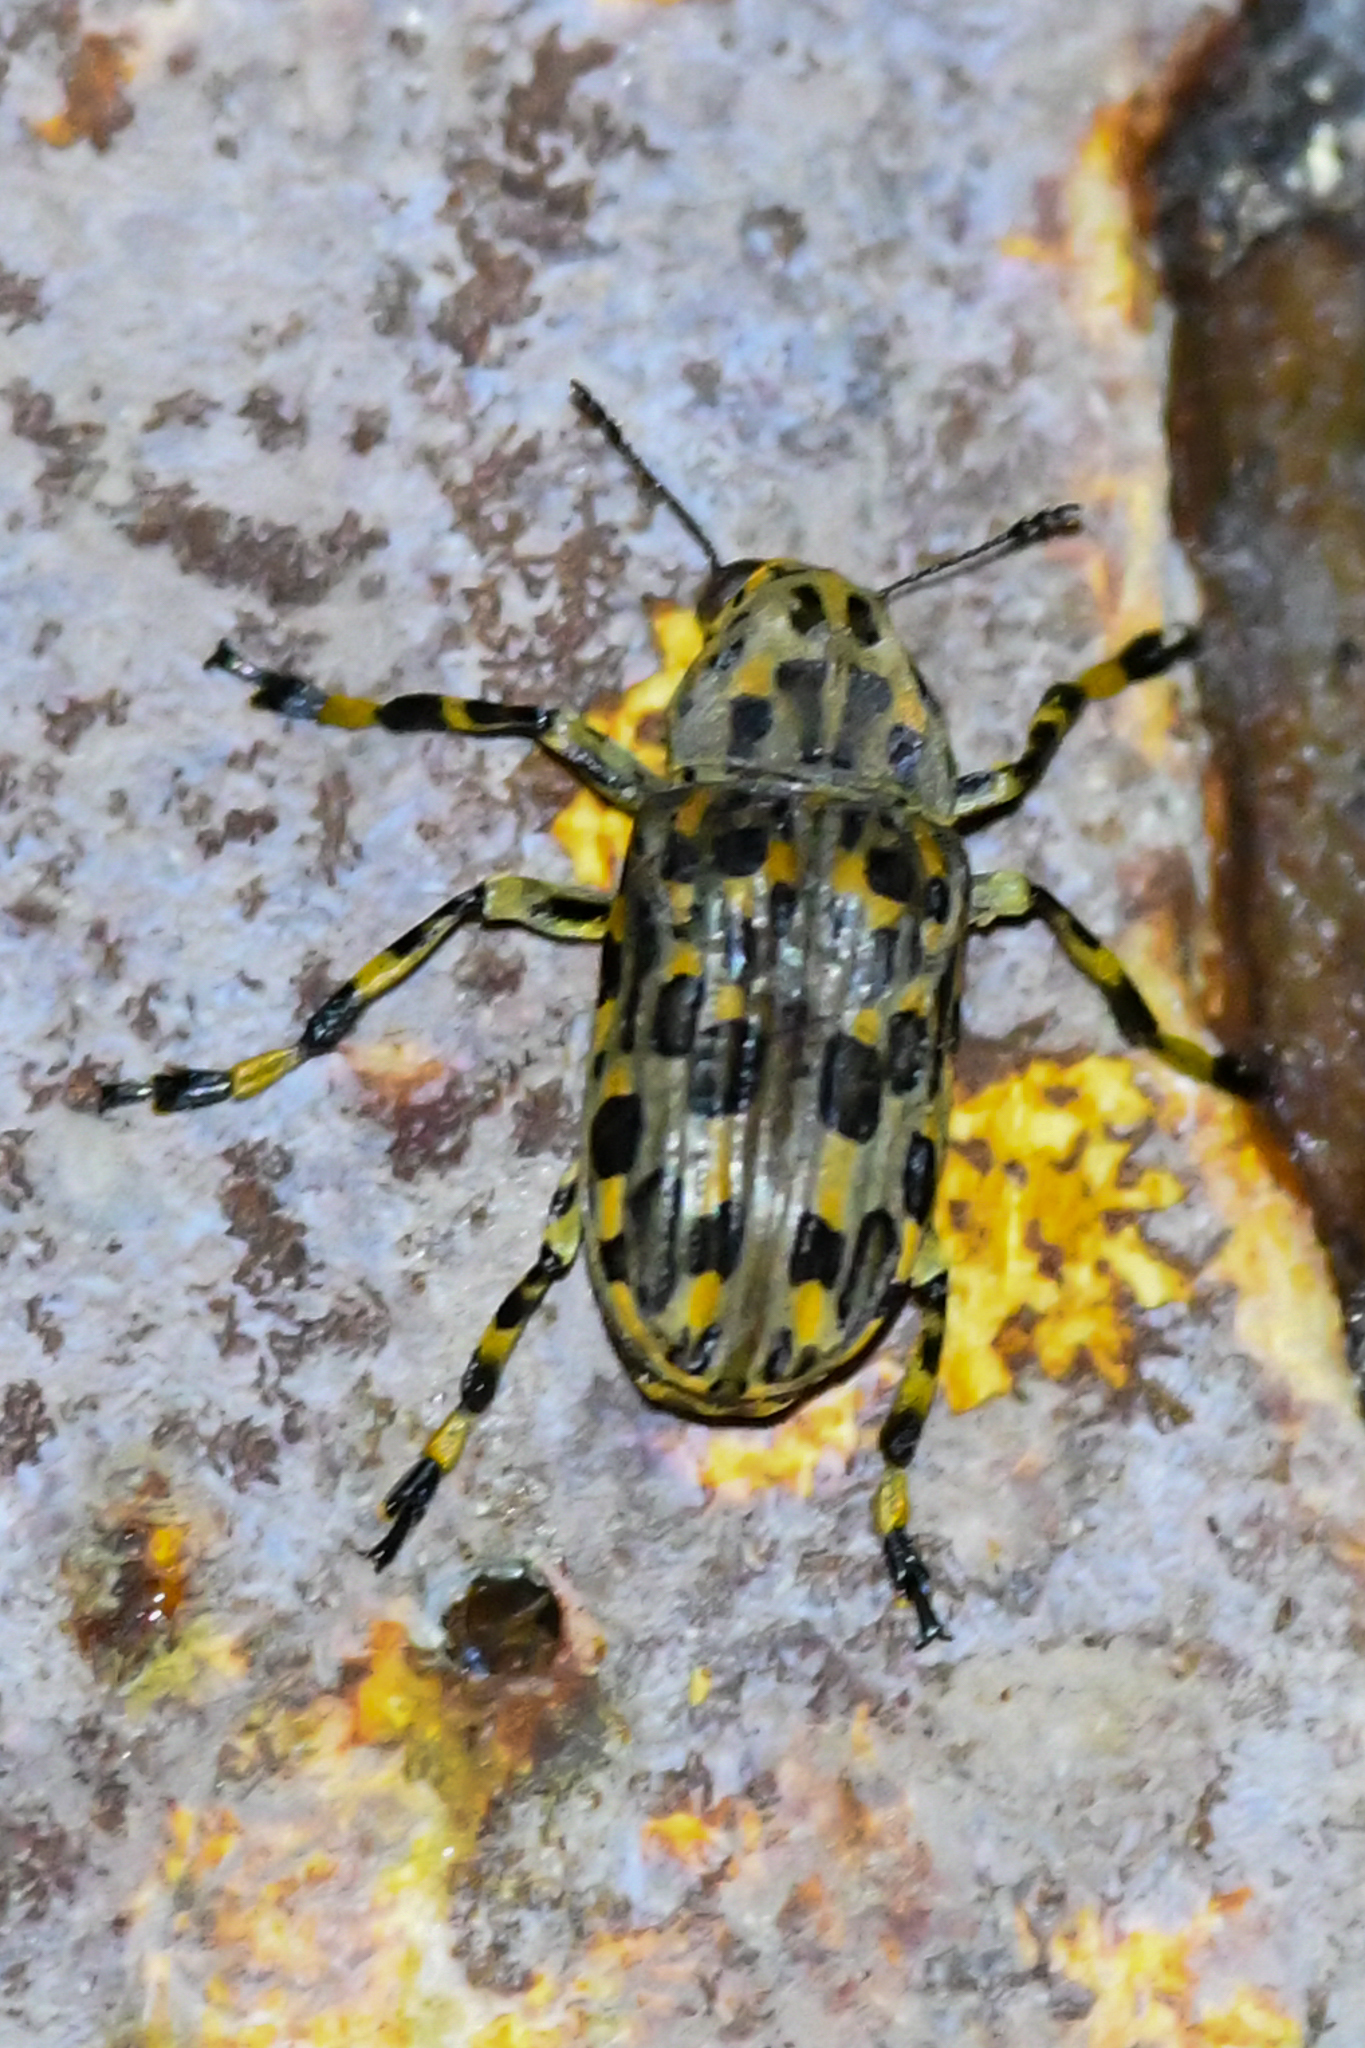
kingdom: Animalia
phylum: Arthropoda
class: Insecta
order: Coleoptera
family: Anthribidae
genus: Euparius
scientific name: Euparius tapirus
